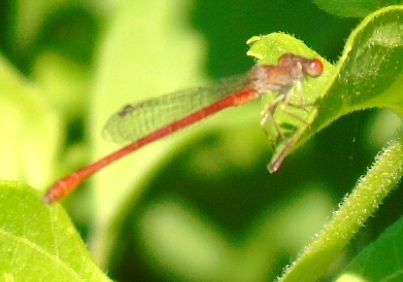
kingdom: Animalia
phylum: Arthropoda
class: Insecta
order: Odonata
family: Coenagrionidae
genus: Telebasis
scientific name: Telebasis
